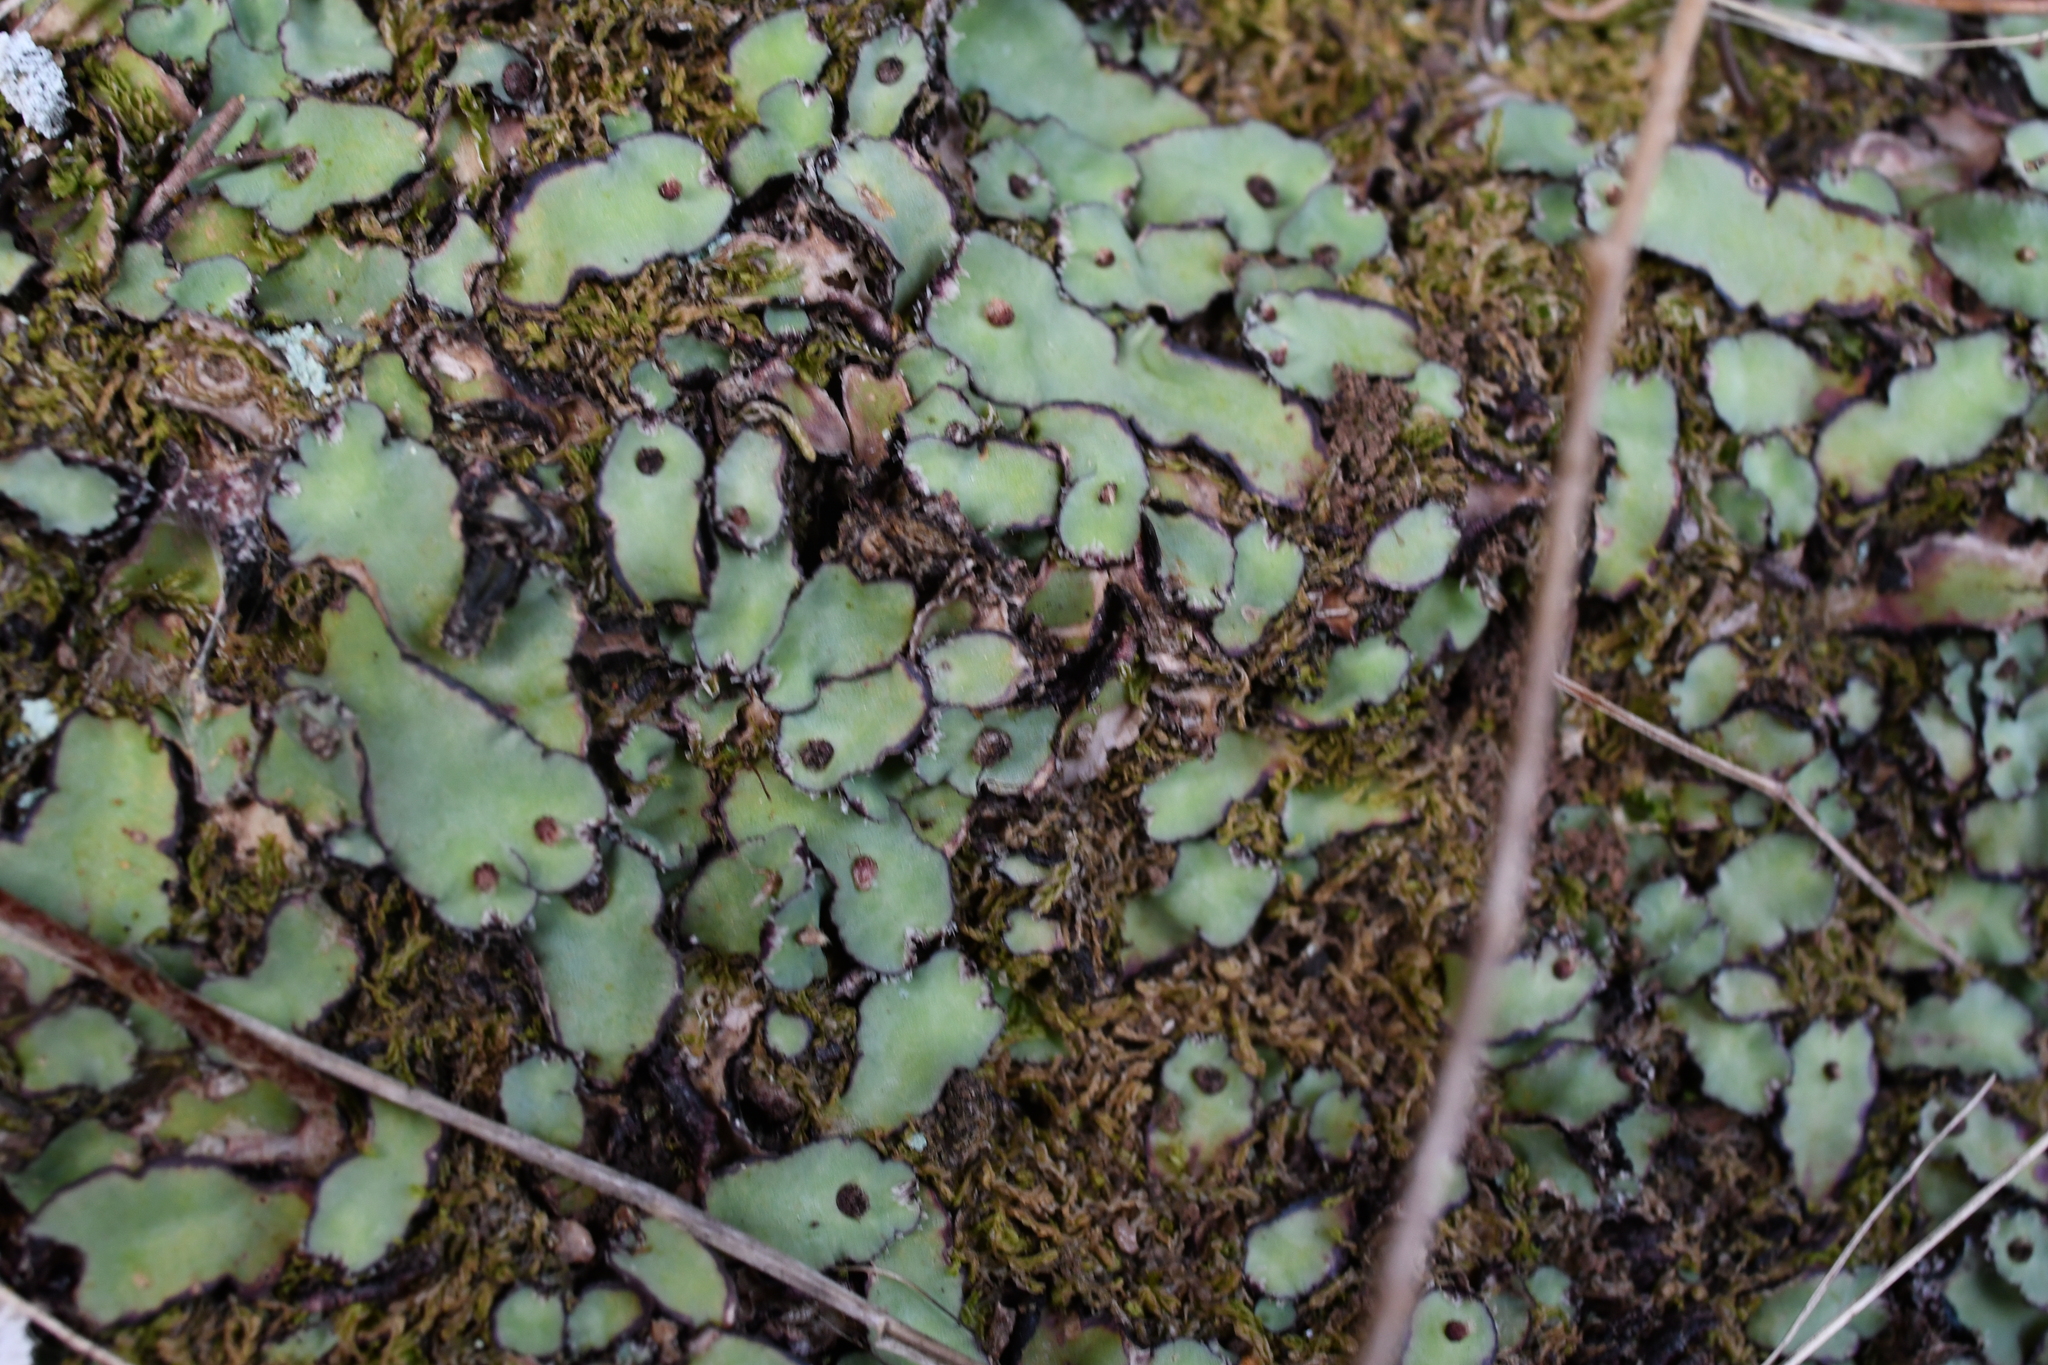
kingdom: Plantae
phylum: Marchantiophyta
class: Marchantiopsida
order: Marchantiales
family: Aytoniaceae
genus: Plagiochasma
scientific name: Plagiochasma rupestre
